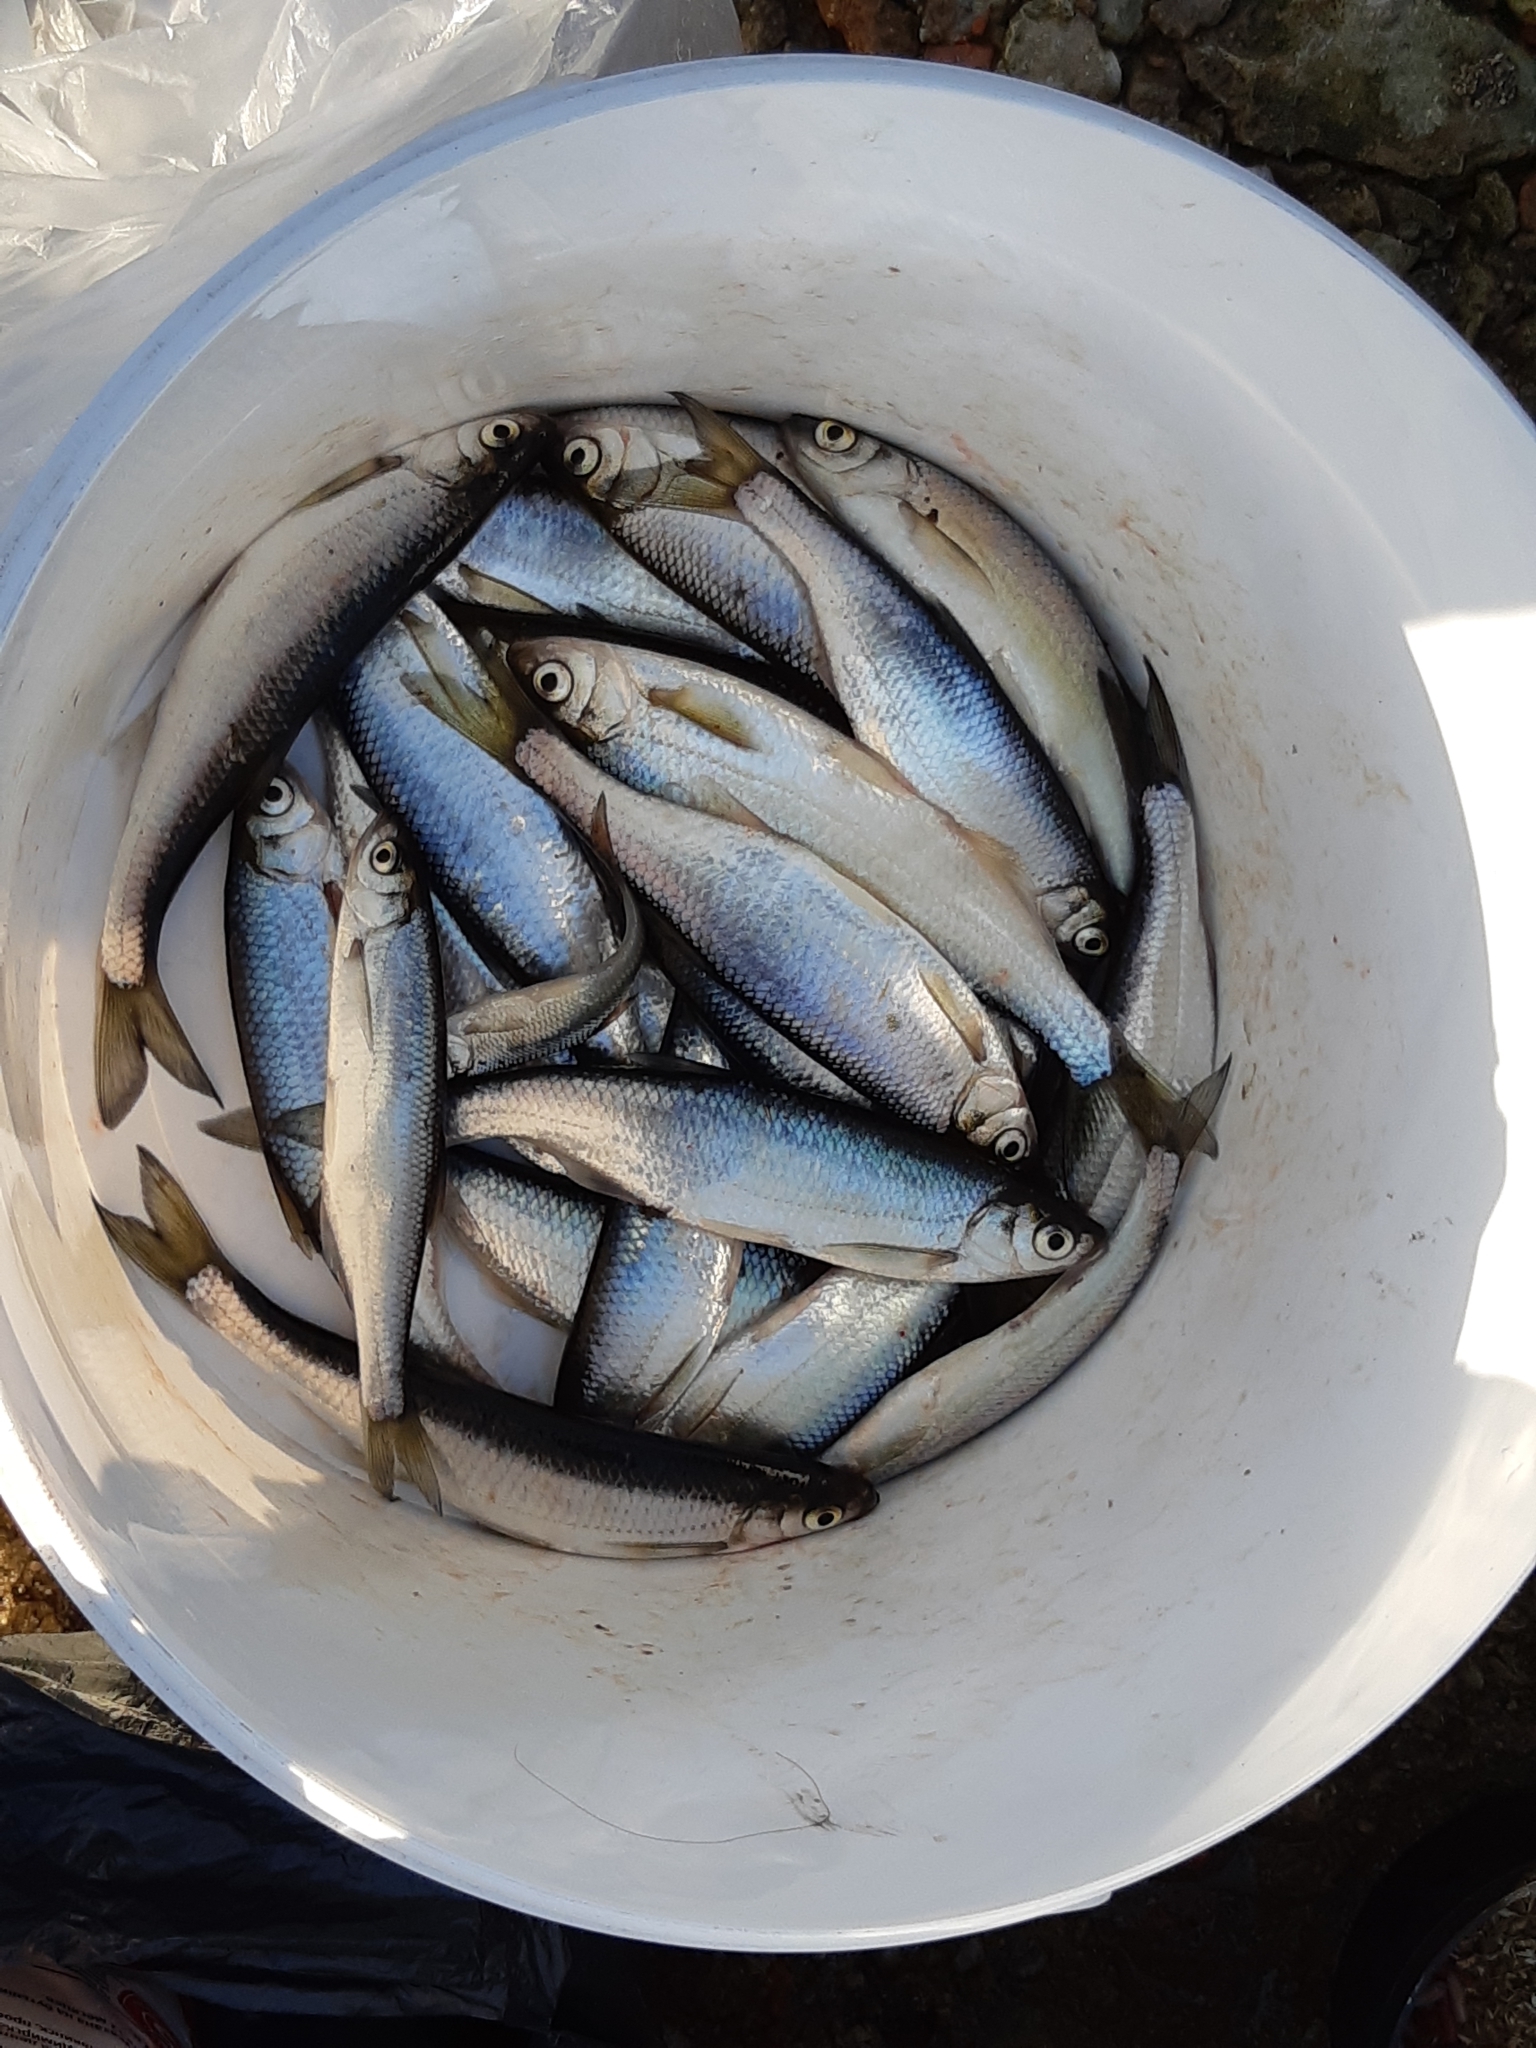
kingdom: Animalia
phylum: Chordata
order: Cypriniformes
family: Cyprinidae
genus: Alburnus
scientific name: Alburnus alburnus
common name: Bleak
